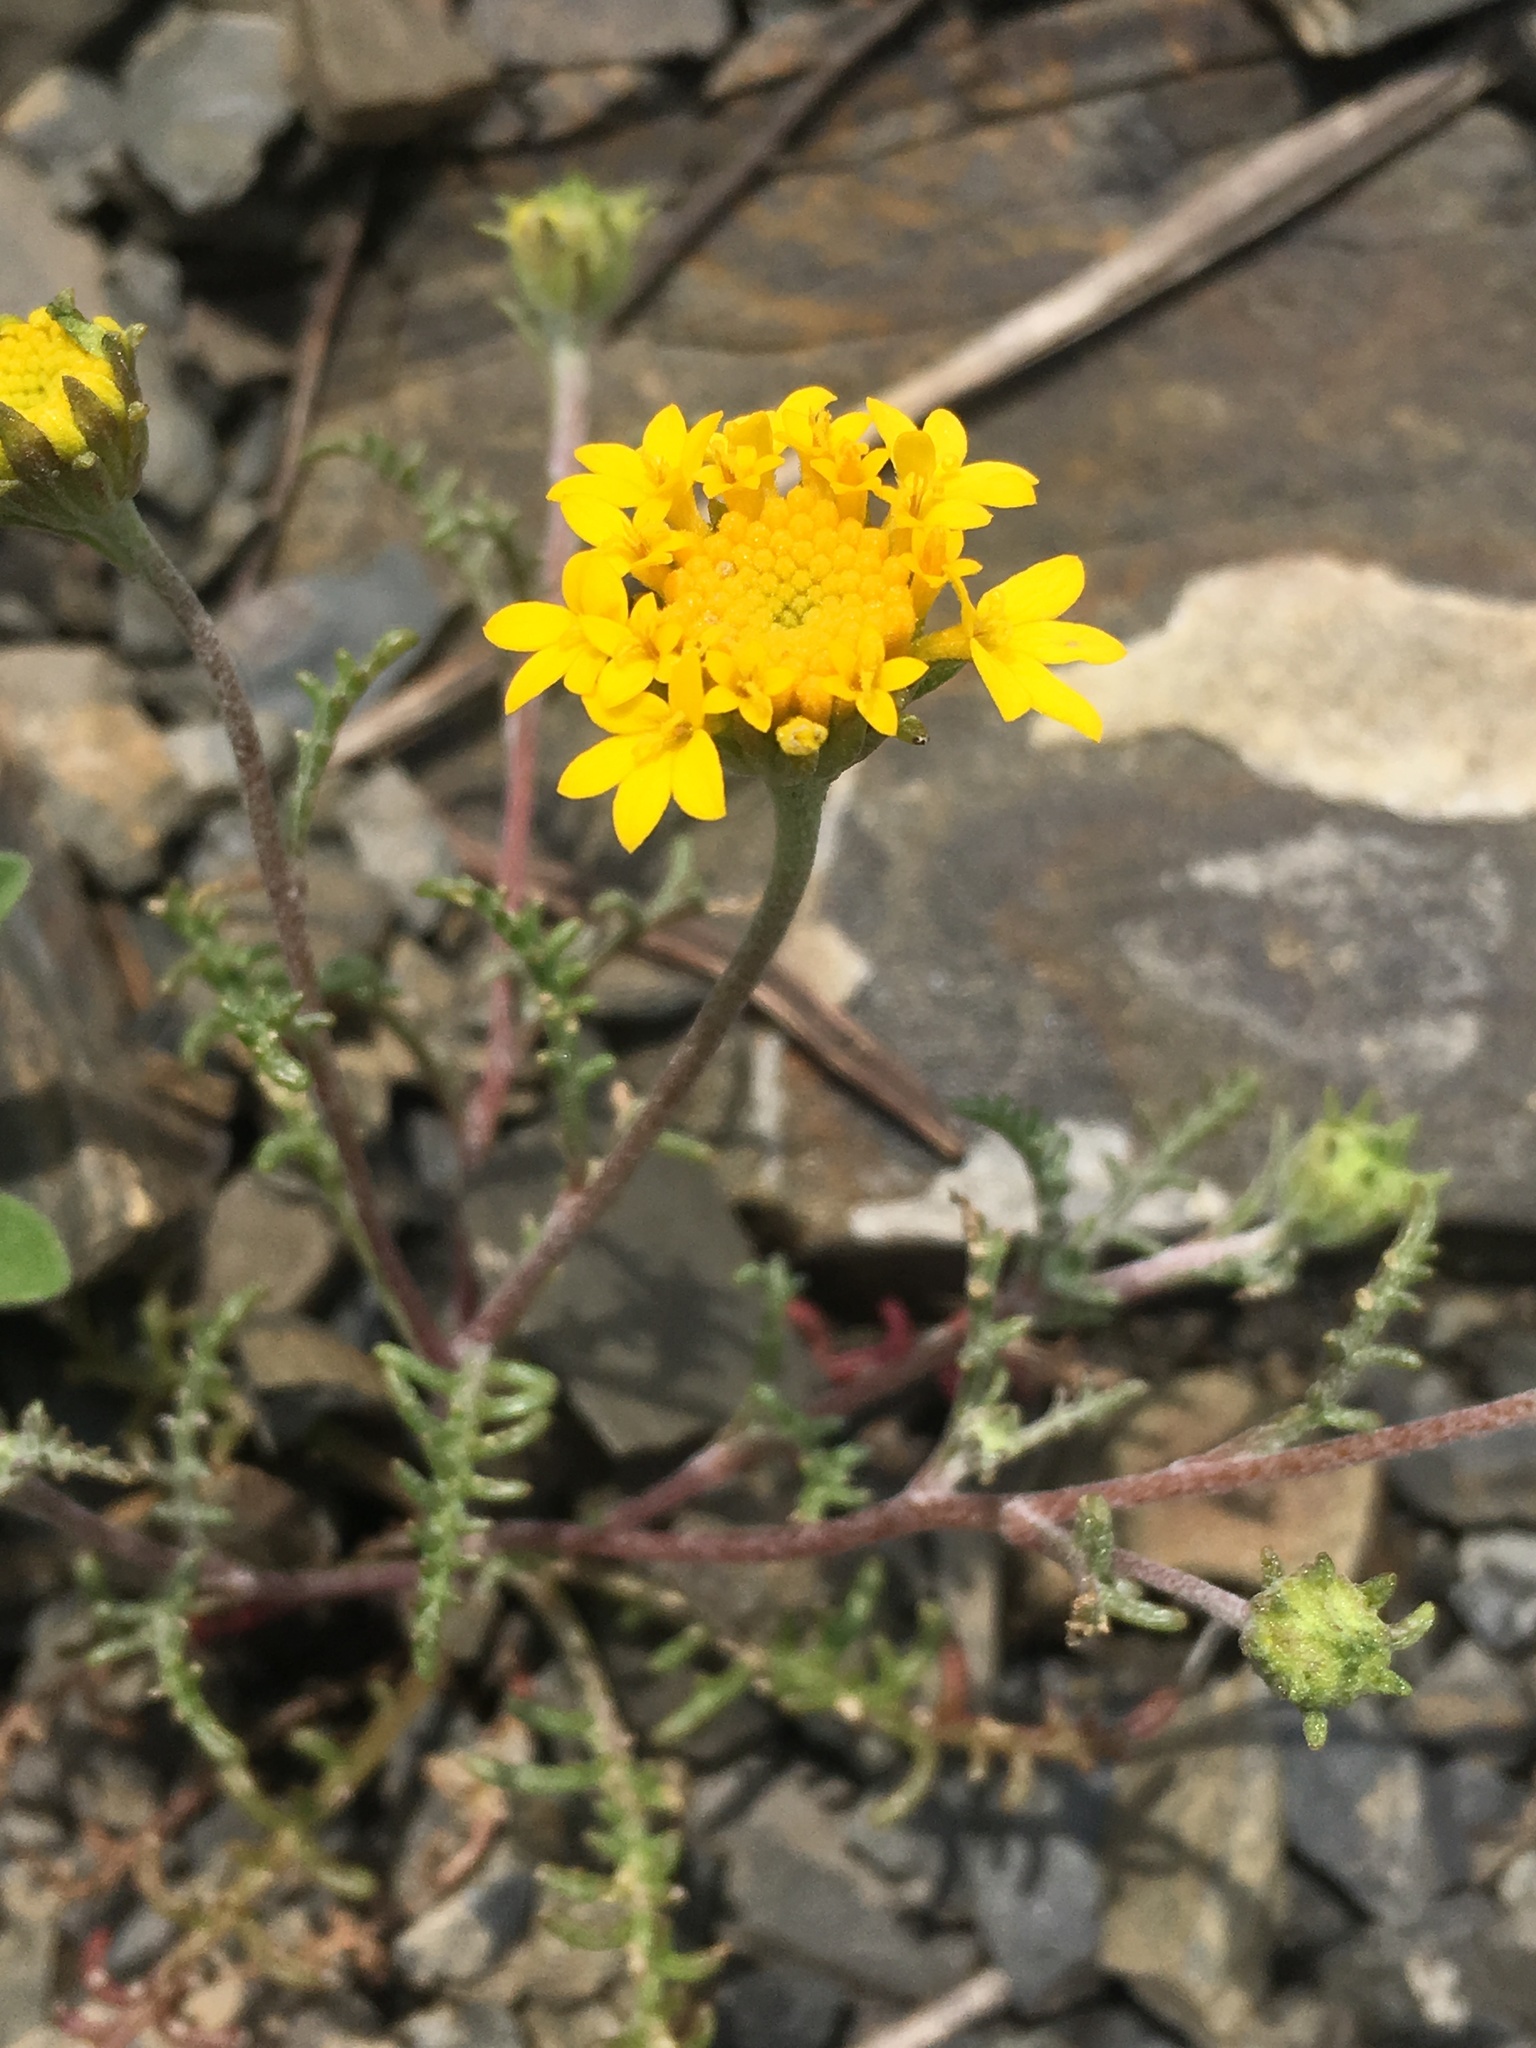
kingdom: Plantae
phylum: Tracheophyta
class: Magnoliopsida
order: Asterales
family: Asteraceae
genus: Chaenactis
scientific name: Chaenactis glabriuscula
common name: Yellow pincushion
